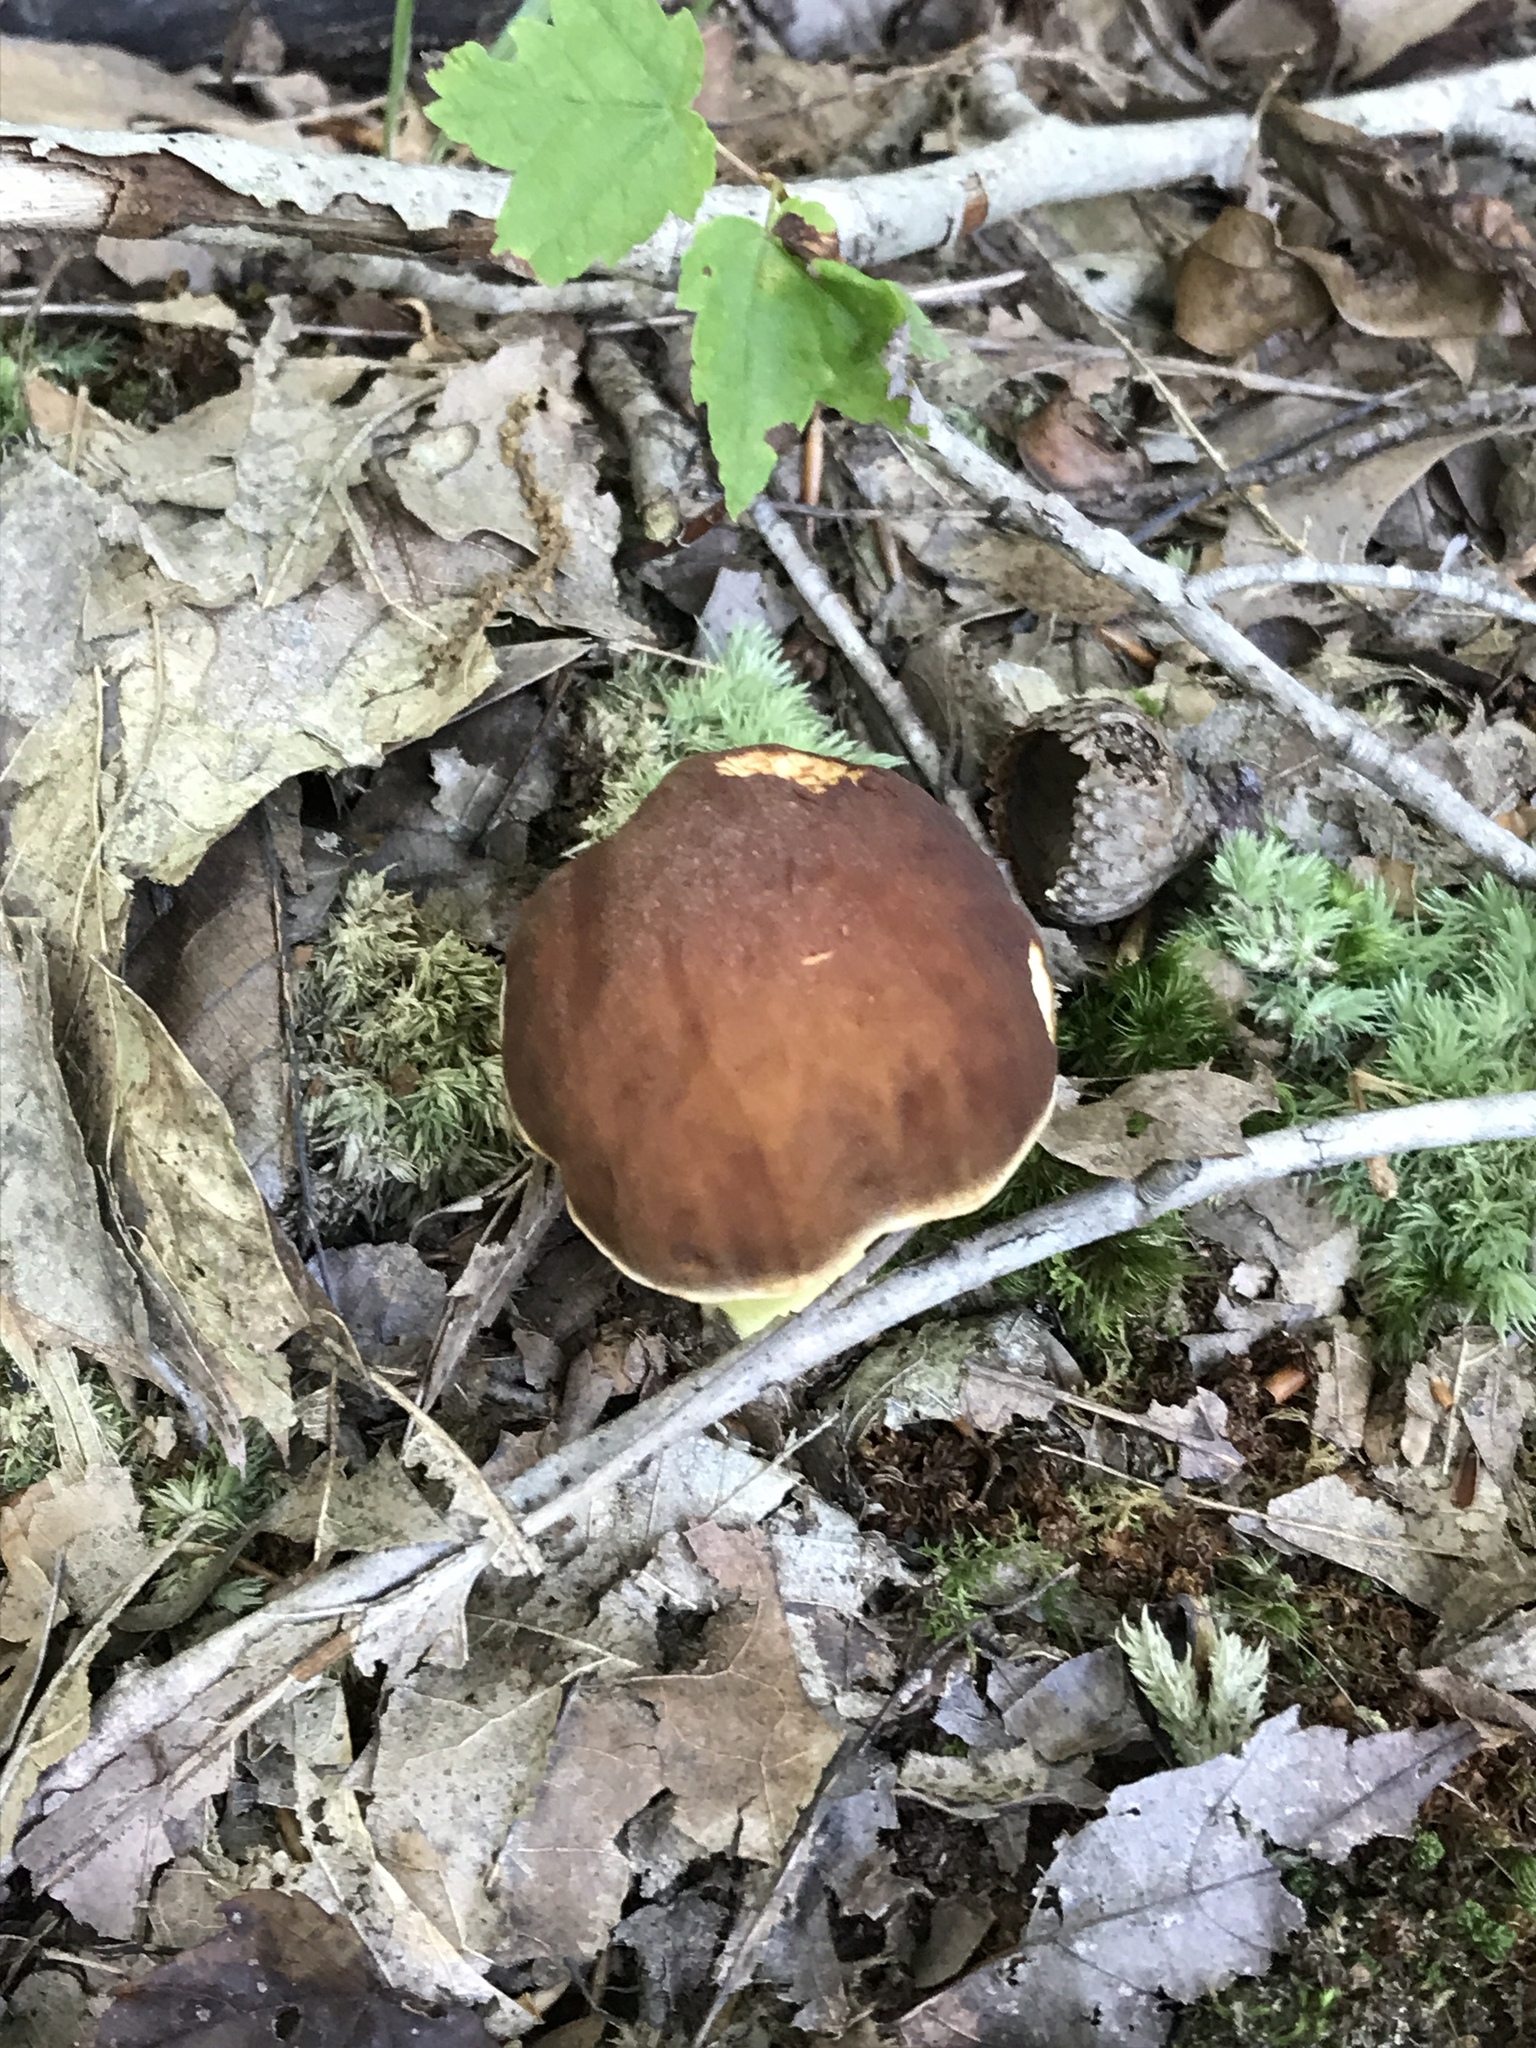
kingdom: Fungi
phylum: Basidiomycota
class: Agaricomycetes
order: Boletales
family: Boletaceae
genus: Hemileccinum
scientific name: Hemileccinum subglabripes
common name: Smoothish-stemmed bolete
